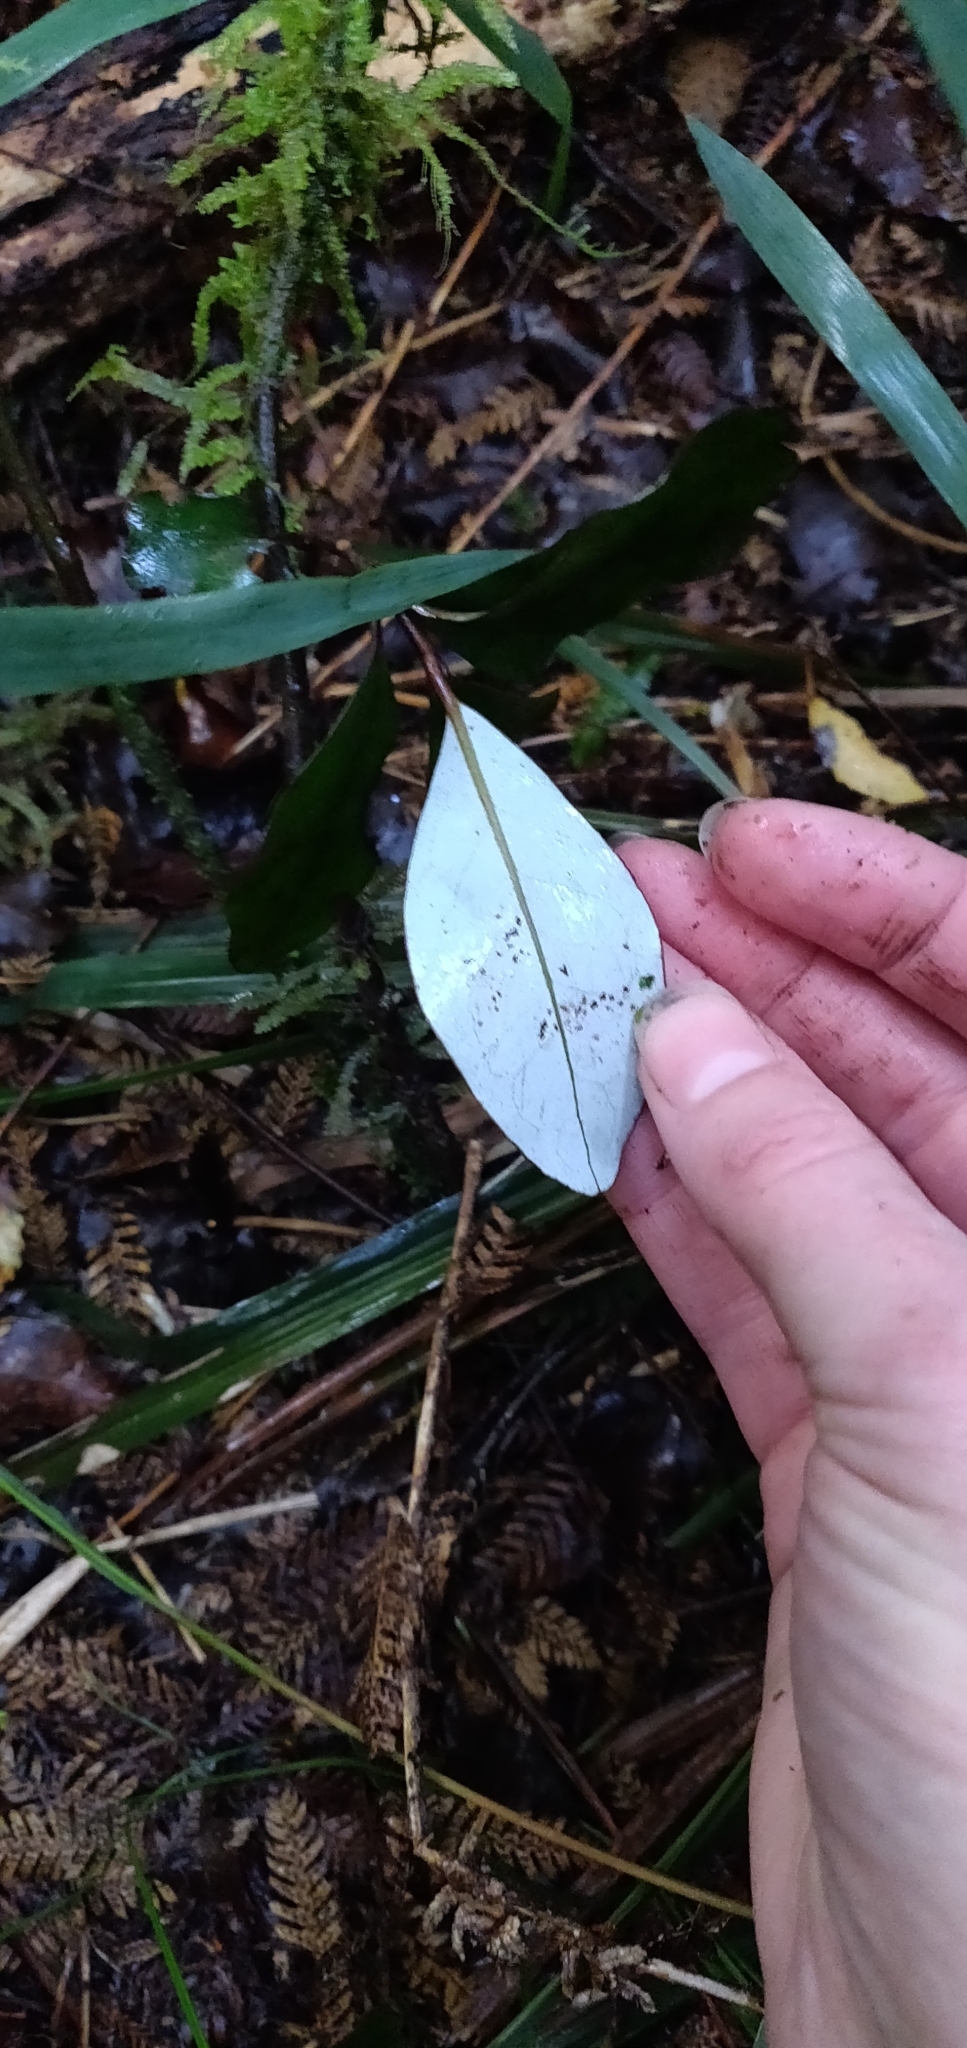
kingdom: Plantae
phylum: Tracheophyta
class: Magnoliopsida
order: Canellales
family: Winteraceae
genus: Pseudowintera
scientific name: Pseudowintera axillaris
